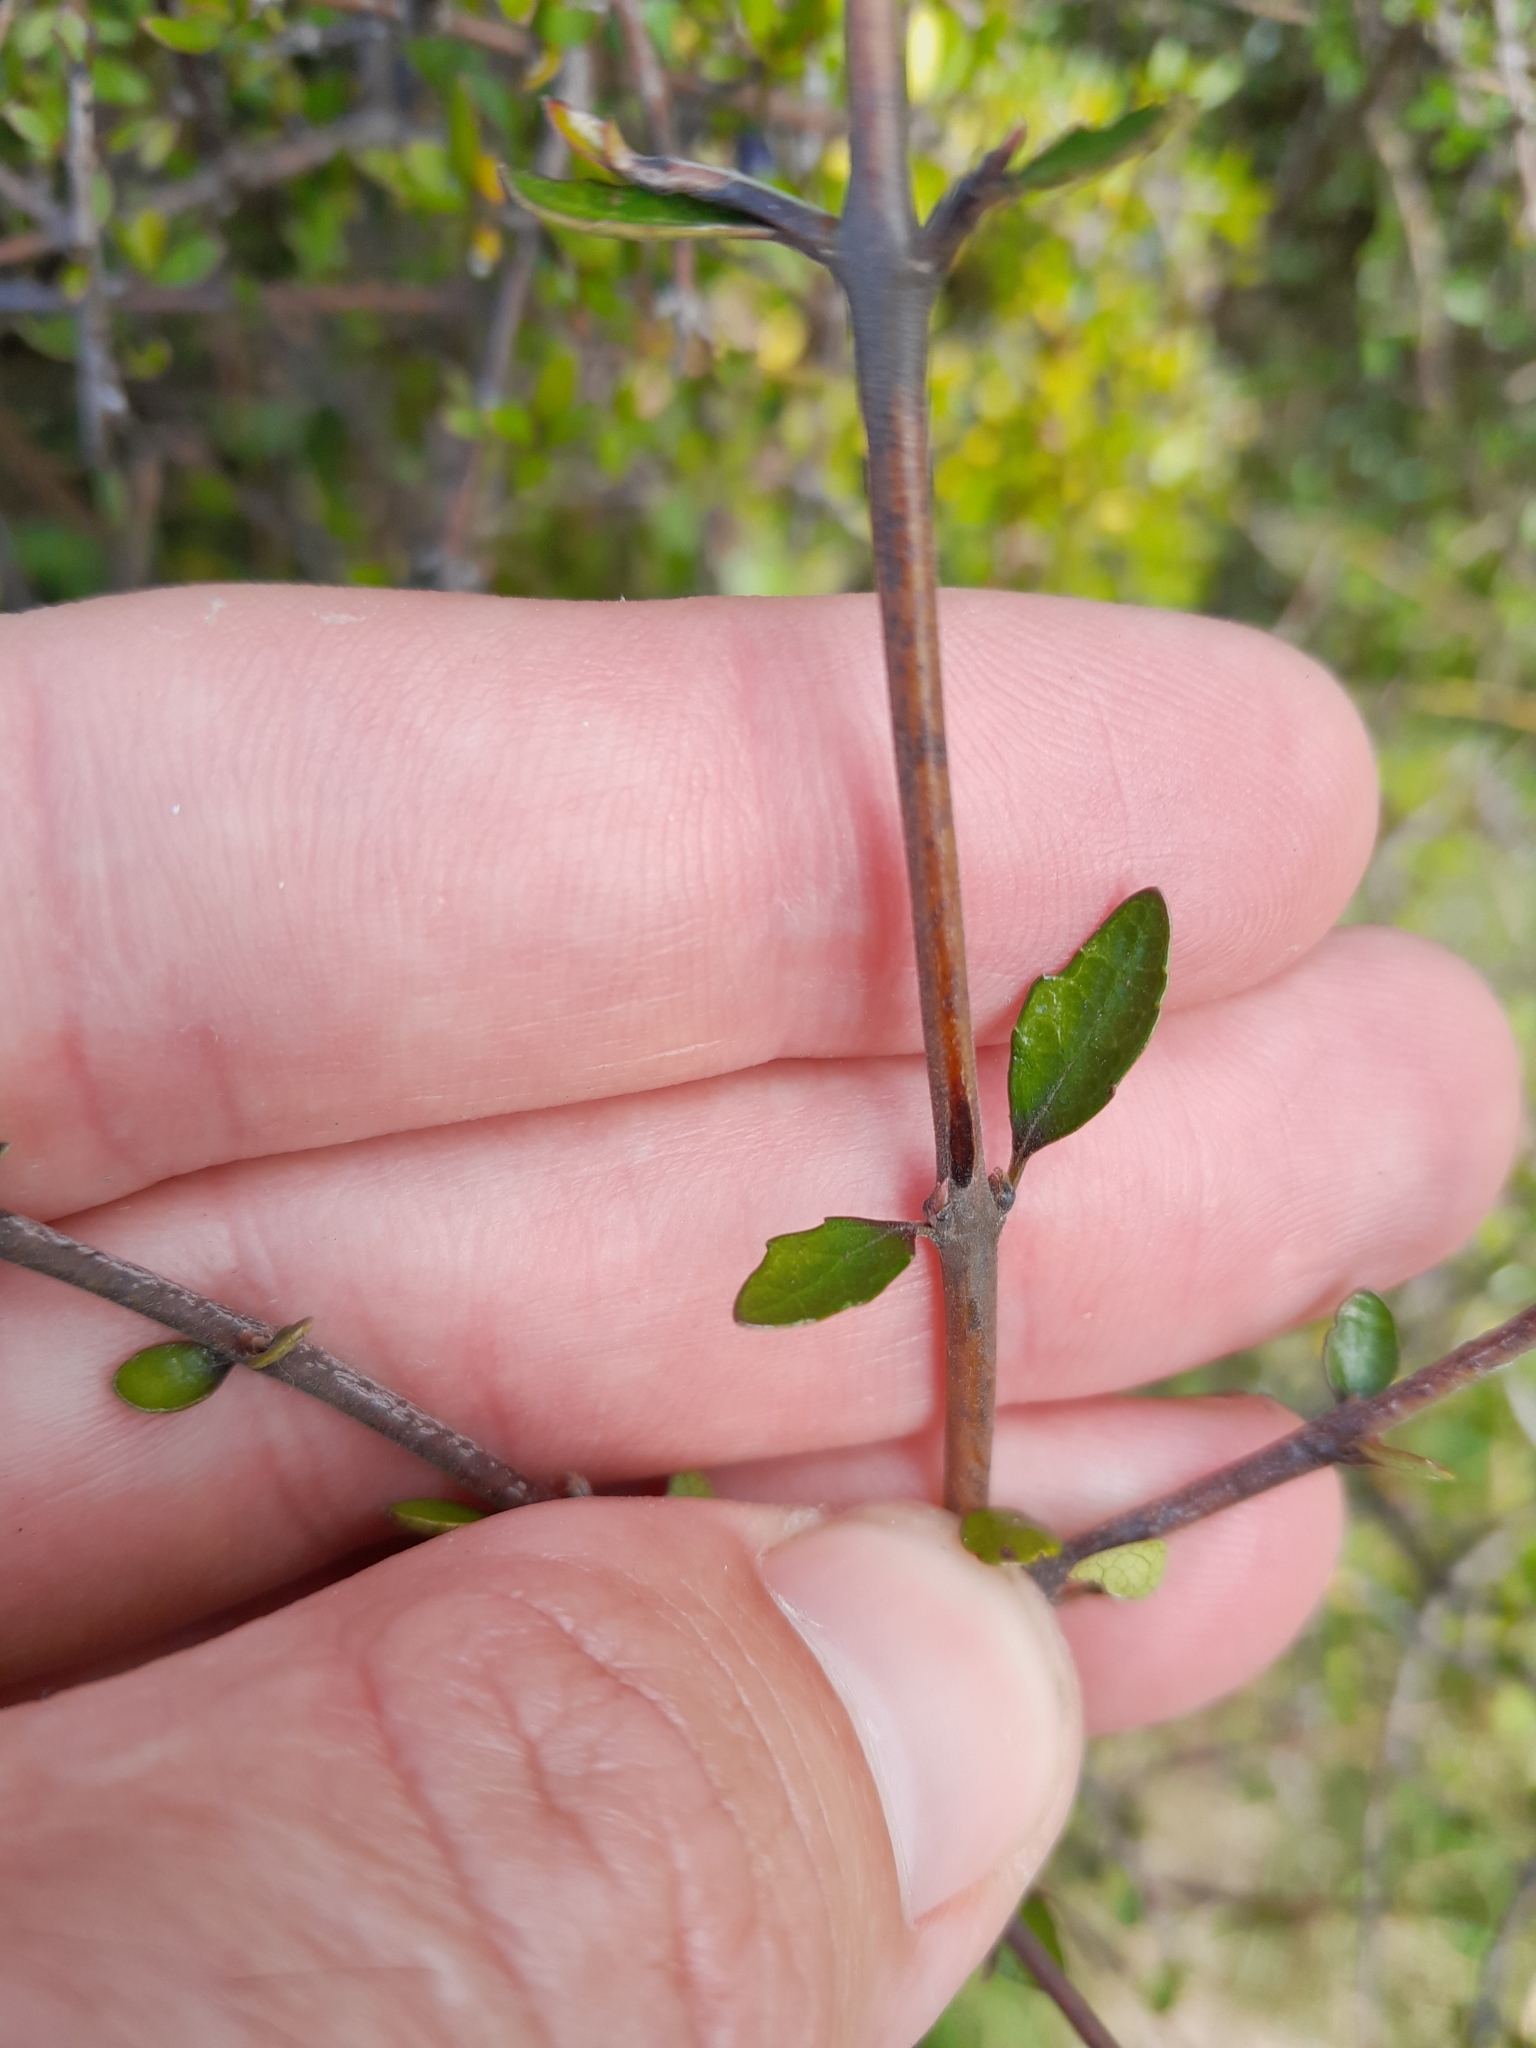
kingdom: Plantae
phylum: Tracheophyta
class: Magnoliopsida
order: Oxalidales
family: Elaeocarpaceae
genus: Aristotelia
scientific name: Aristotelia fruticosa
